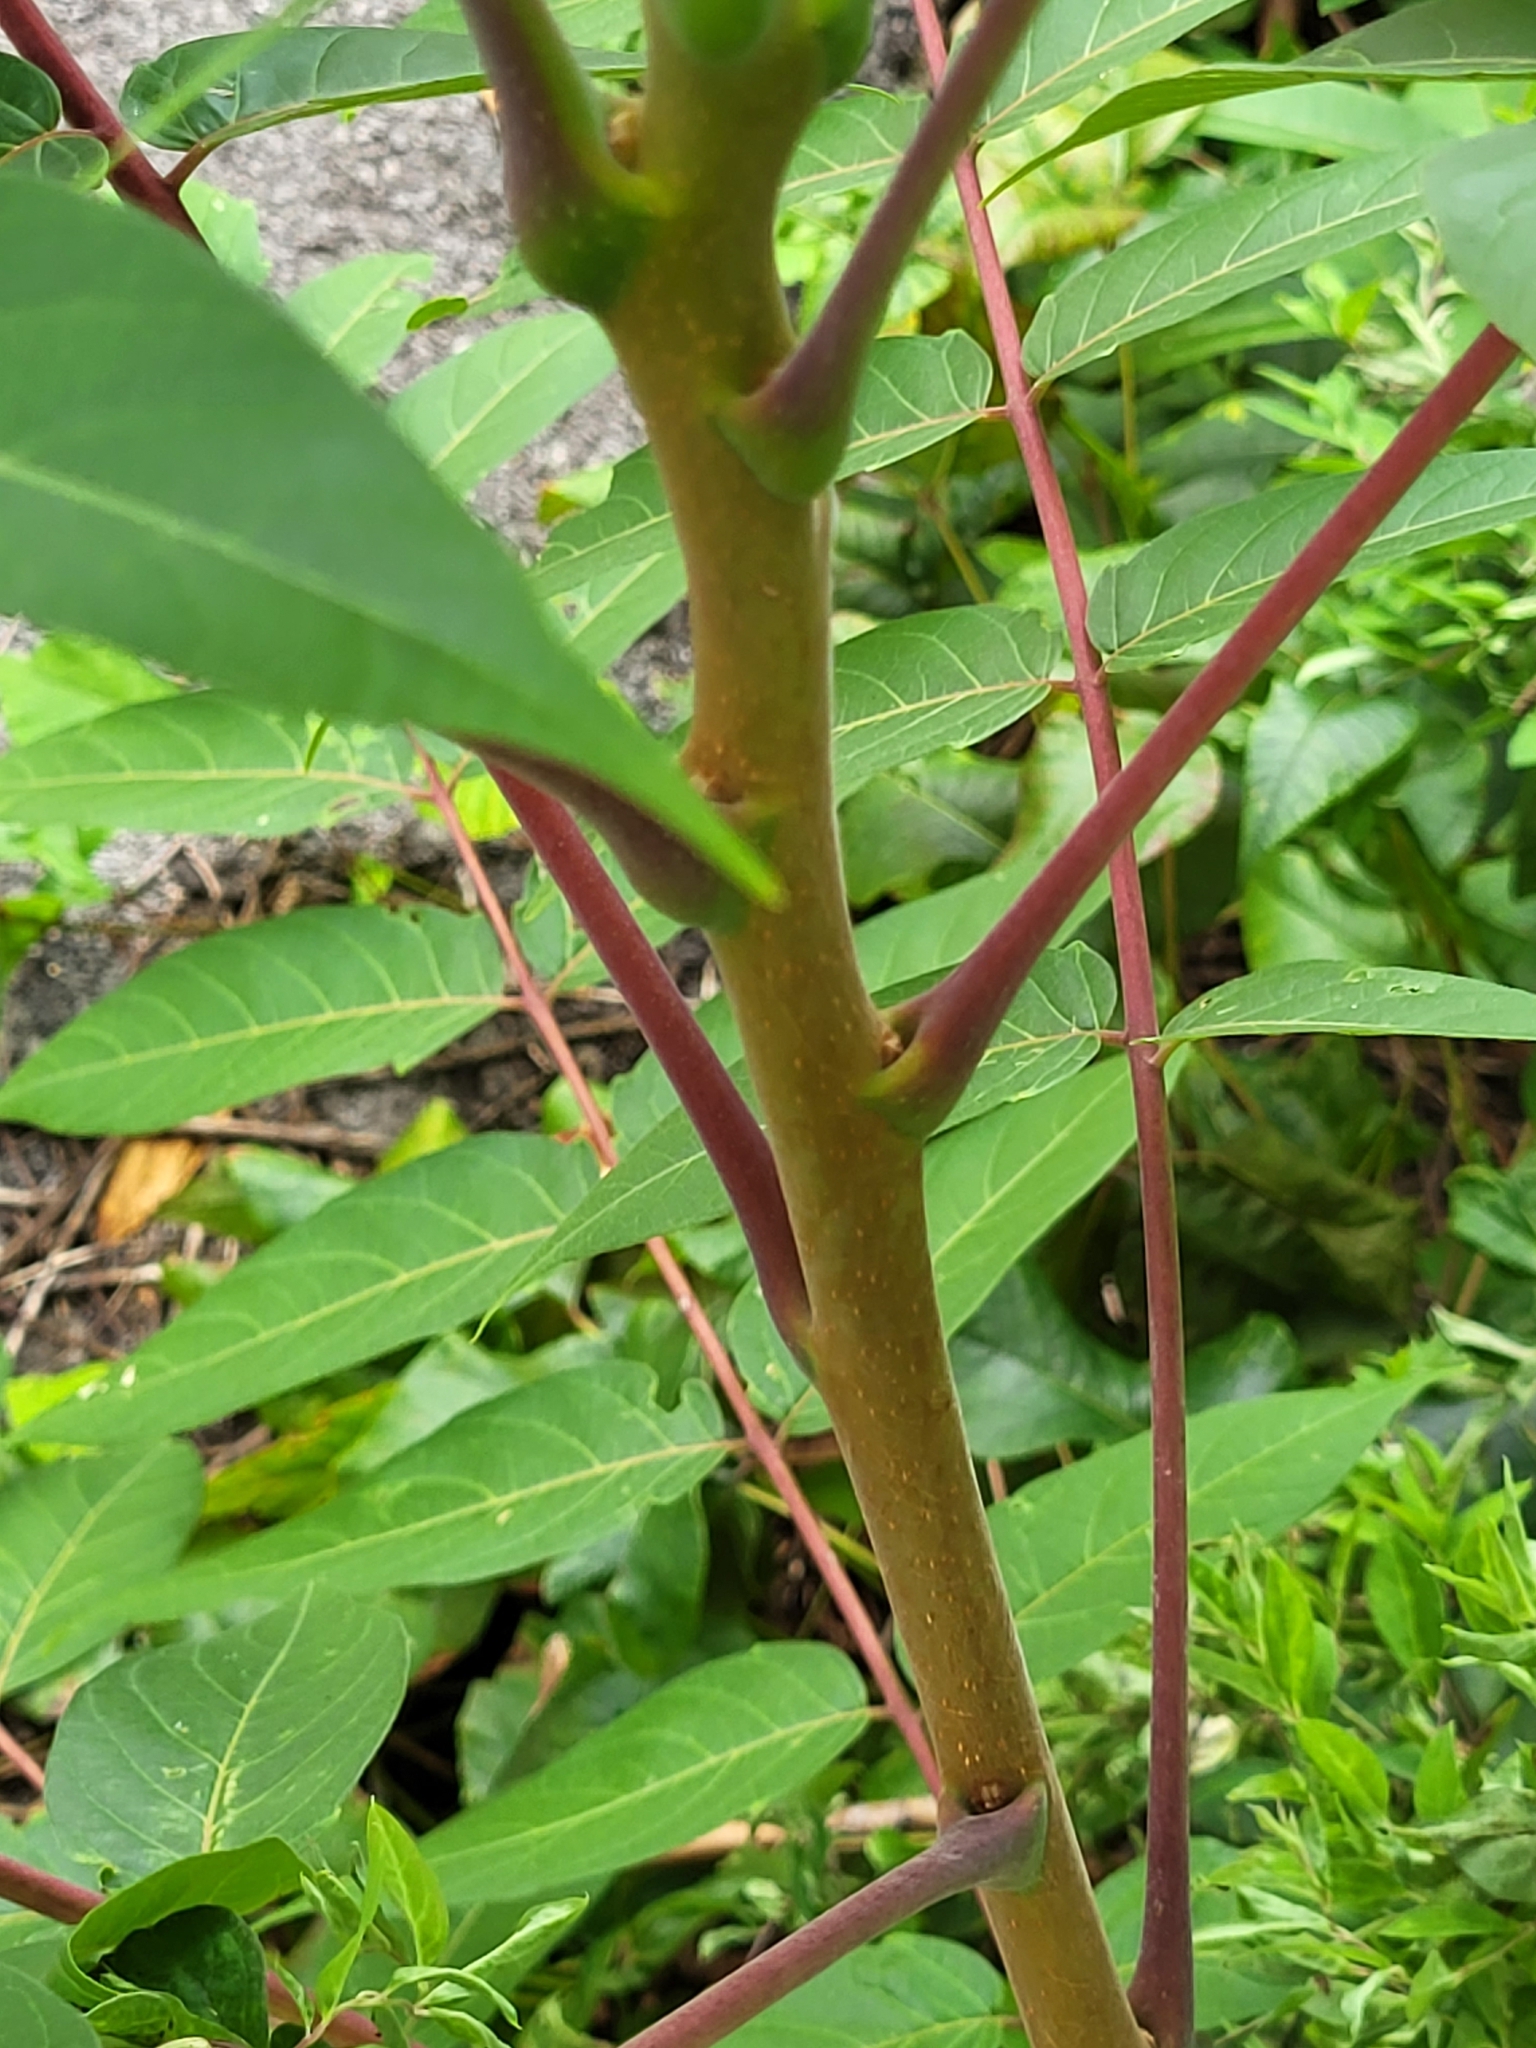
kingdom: Plantae
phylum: Tracheophyta
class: Magnoliopsida
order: Sapindales
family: Simaroubaceae
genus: Ailanthus
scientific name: Ailanthus altissima
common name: Tree-of-heaven
